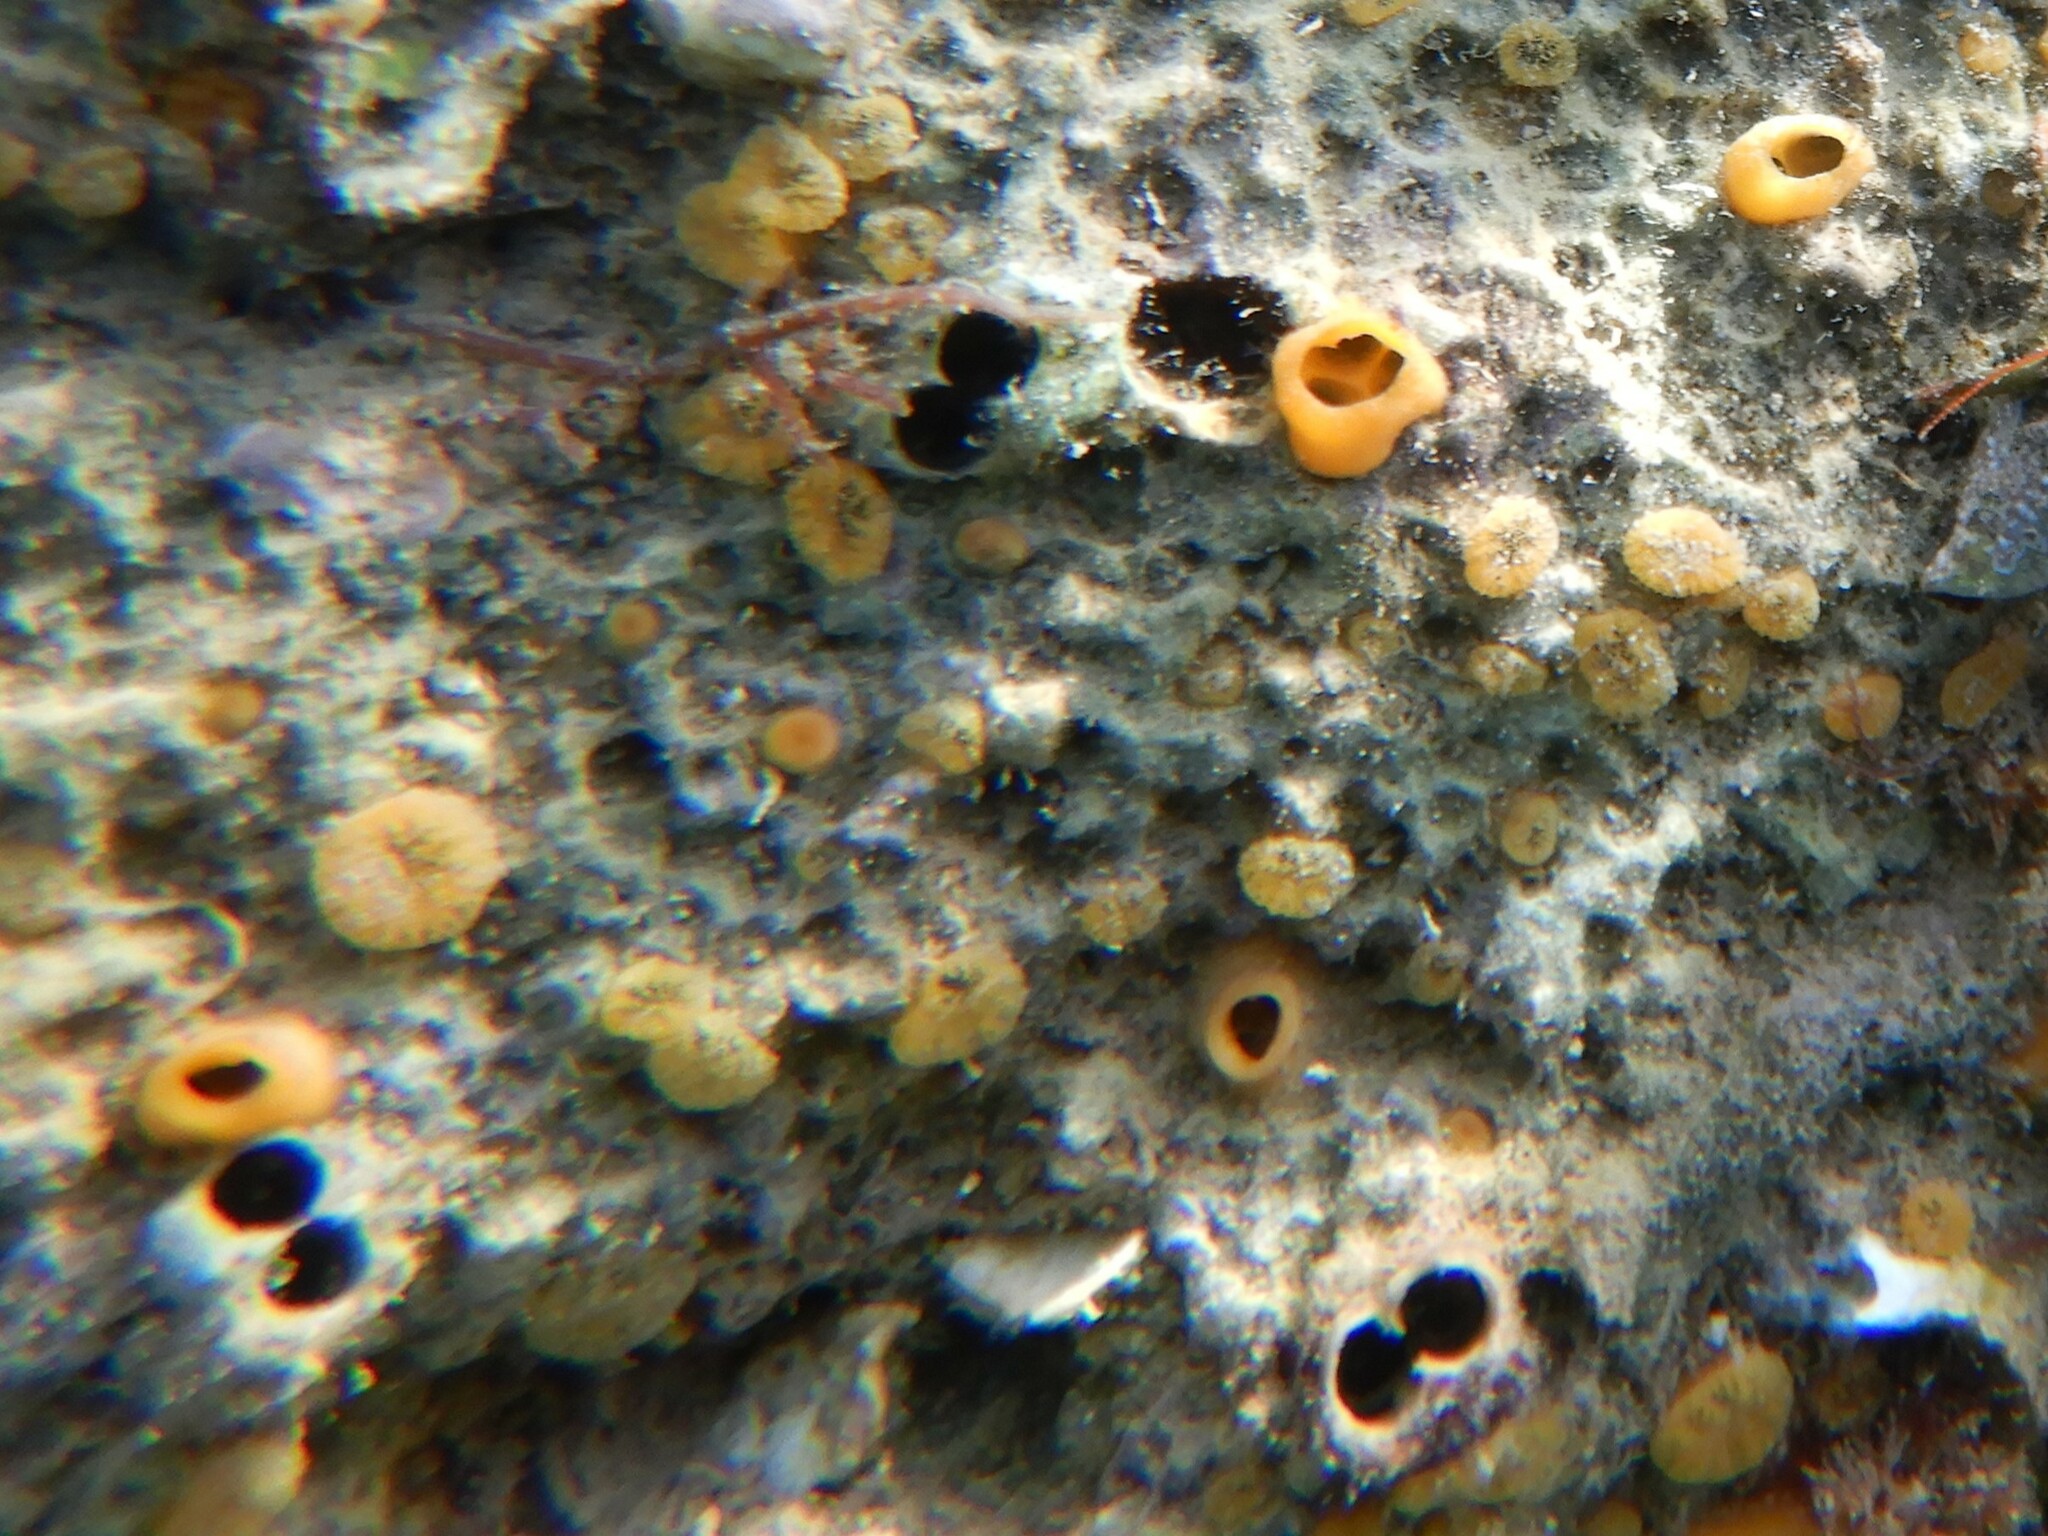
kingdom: Animalia
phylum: Porifera
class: Demospongiae
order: Clionaida
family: Clionaidae
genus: Cliona
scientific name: Cliona celata
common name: Boring sponge
